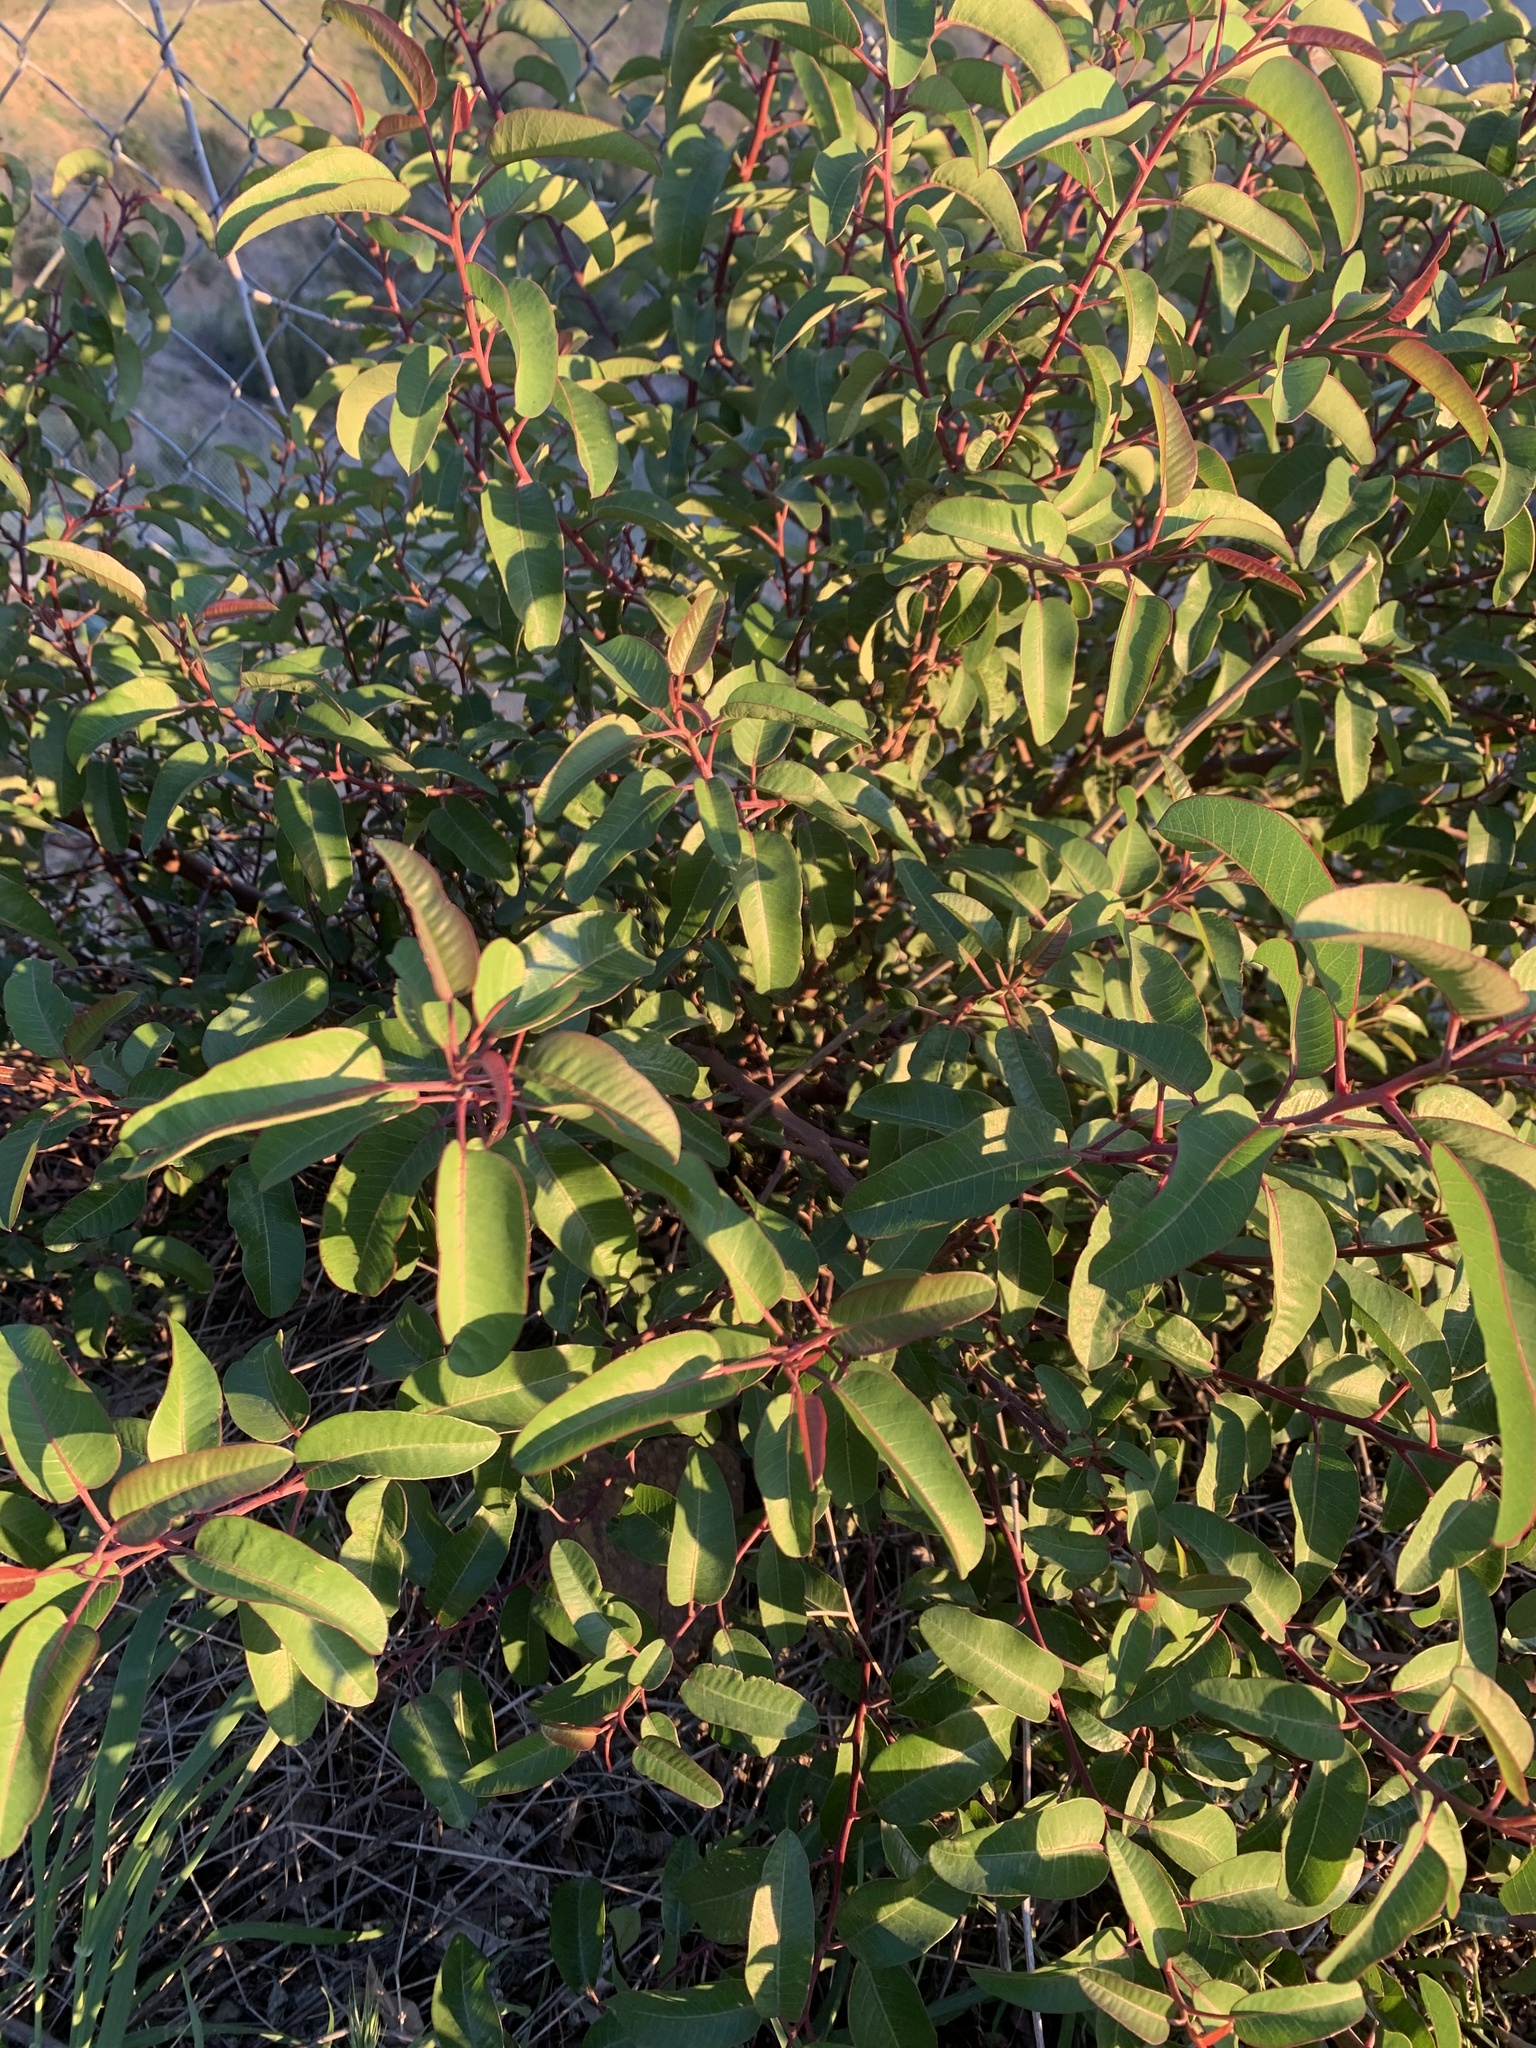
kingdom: Plantae
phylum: Tracheophyta
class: Magnoliopsida
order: Sapindales
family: Anacardiaceae
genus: Malosma
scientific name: Malosma laurina
